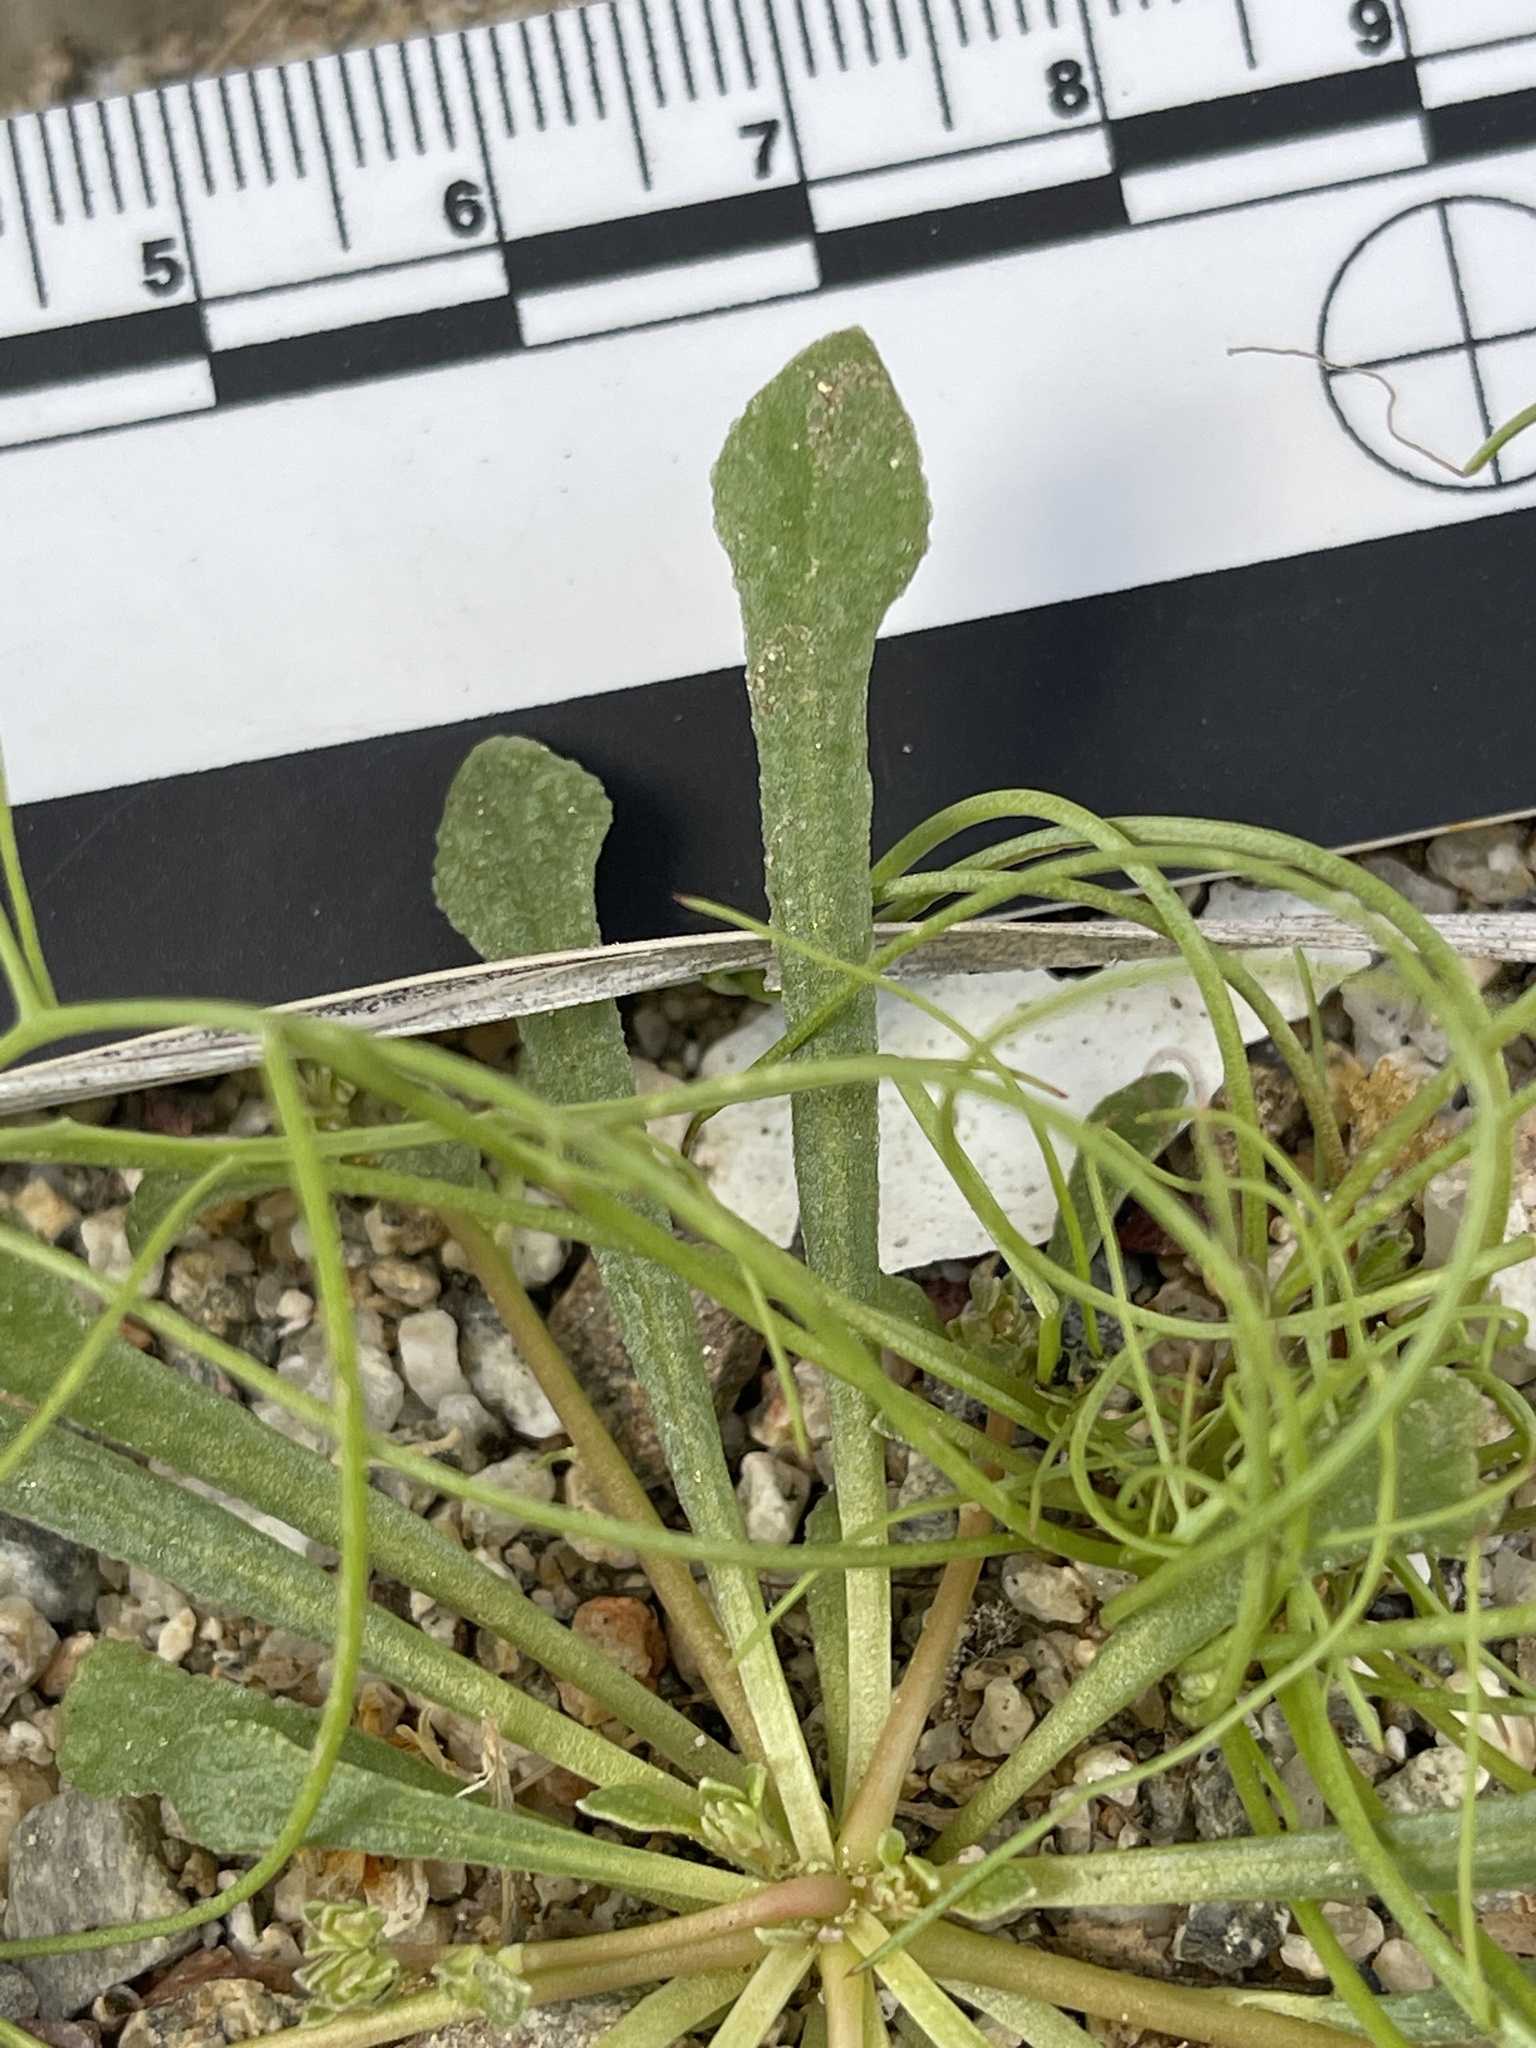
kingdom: Plantae
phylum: Tracheophyta
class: Magnoliopsida
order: Caryophyllales
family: Montiaceae
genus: Calyptridium
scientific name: Calyptridium monandrum
